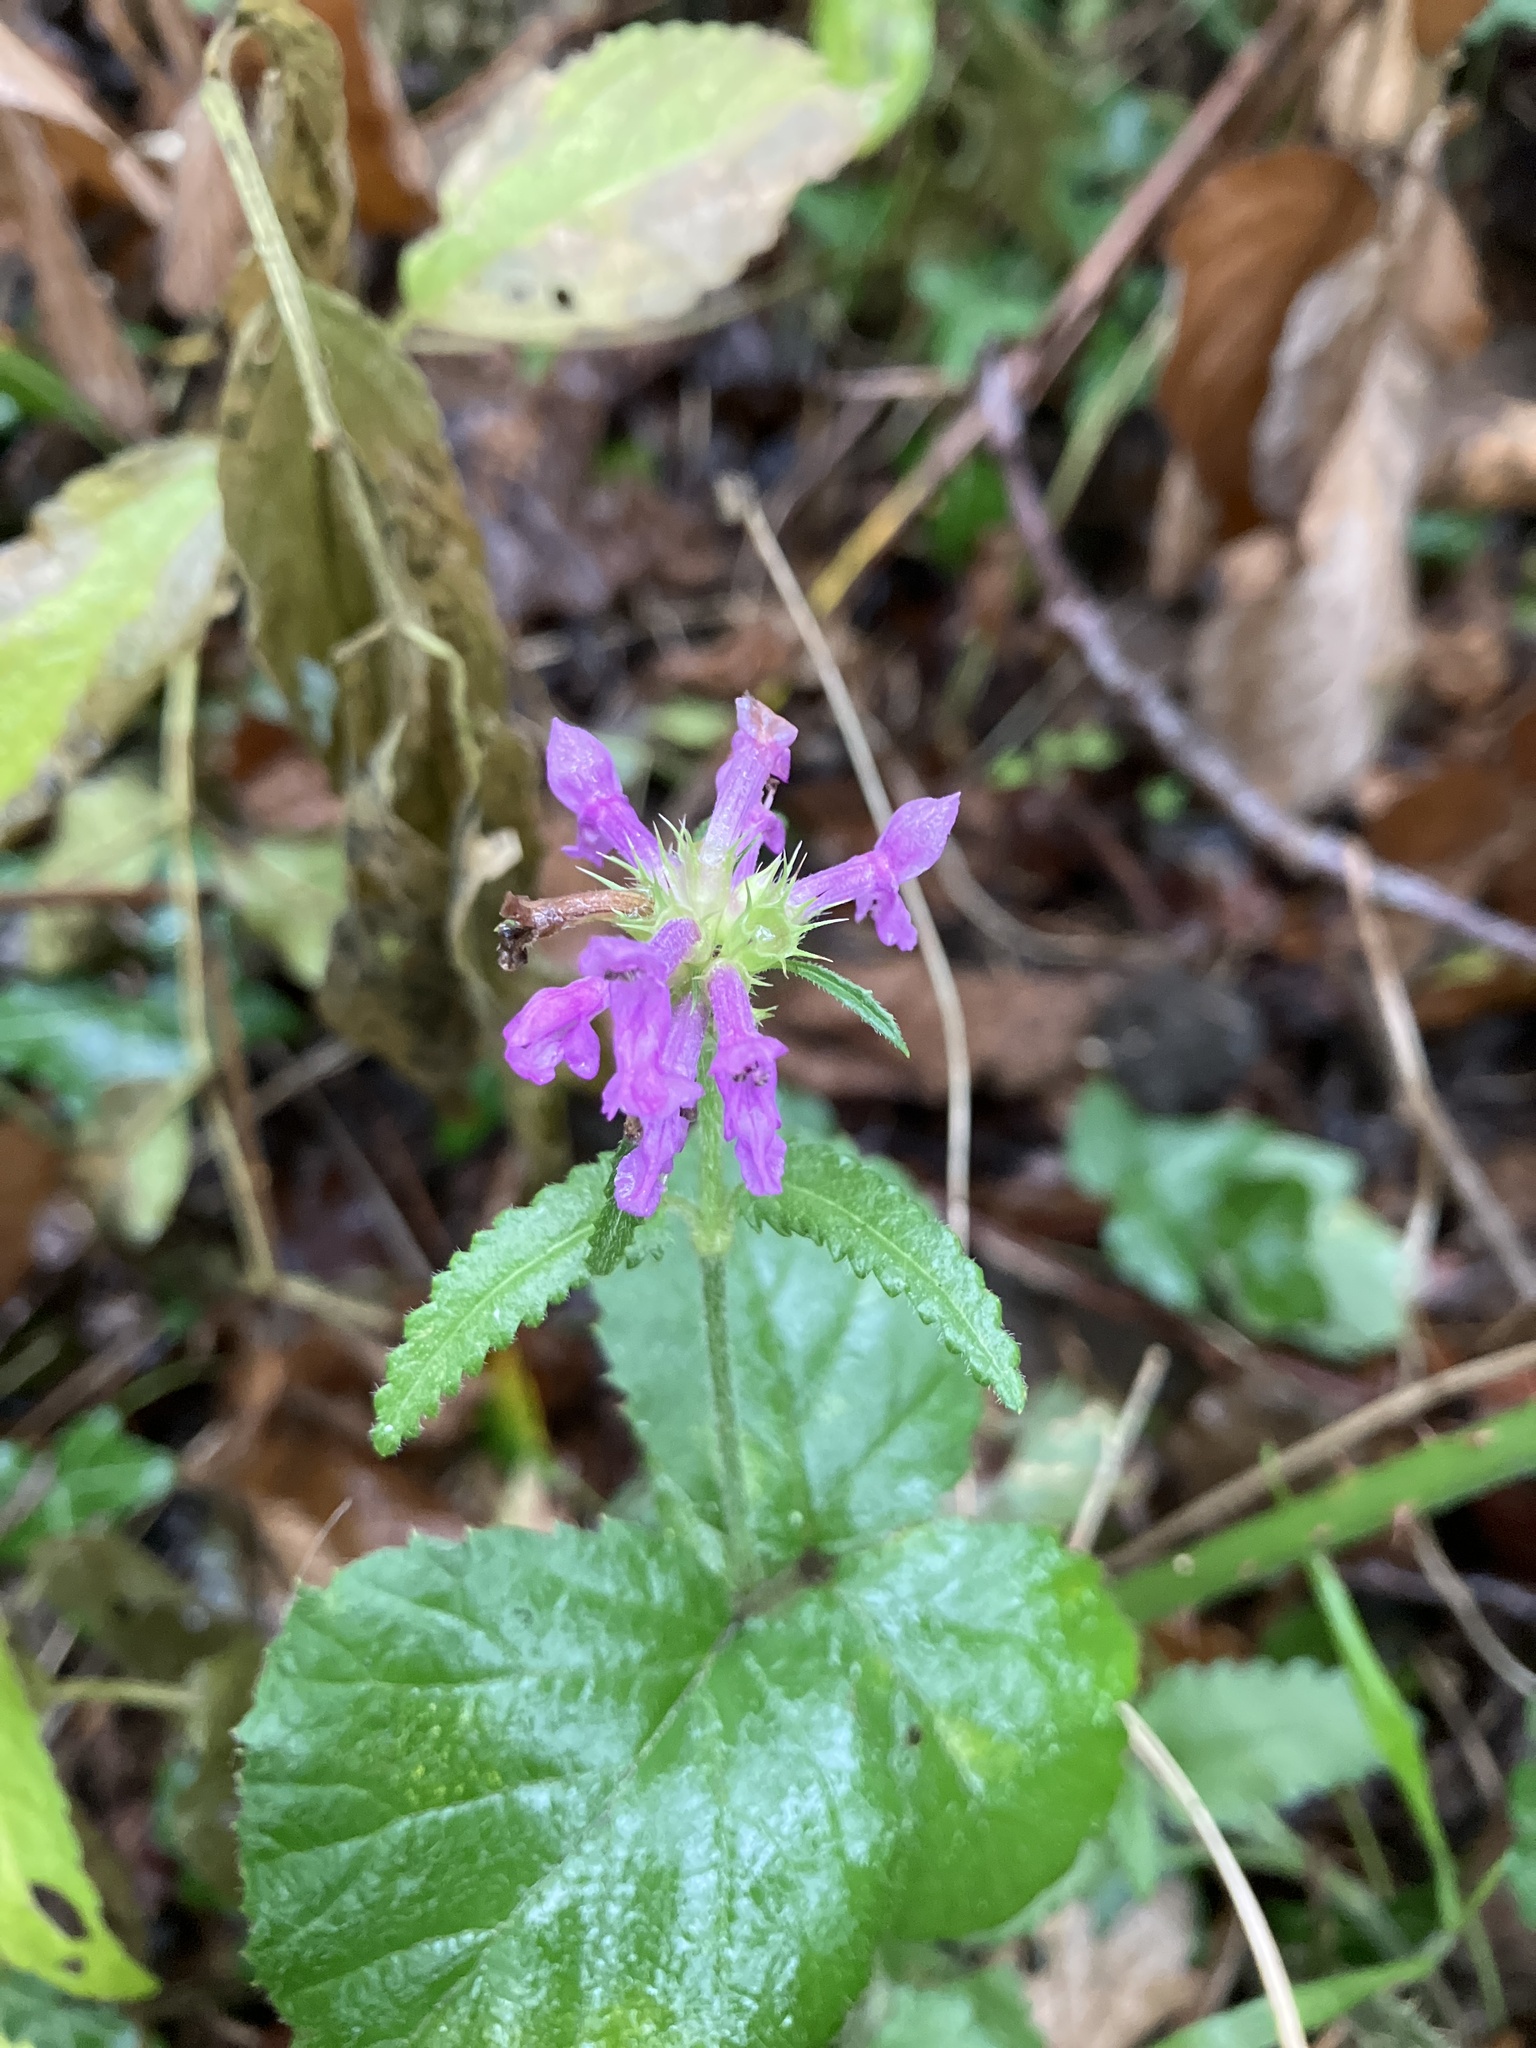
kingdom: Plantae
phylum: Tracheophyta
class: Magnoliopsida
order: Lamiales
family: Lamiaceae
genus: Betonica
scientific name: Betonica officinalis
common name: Bishop's-wort
